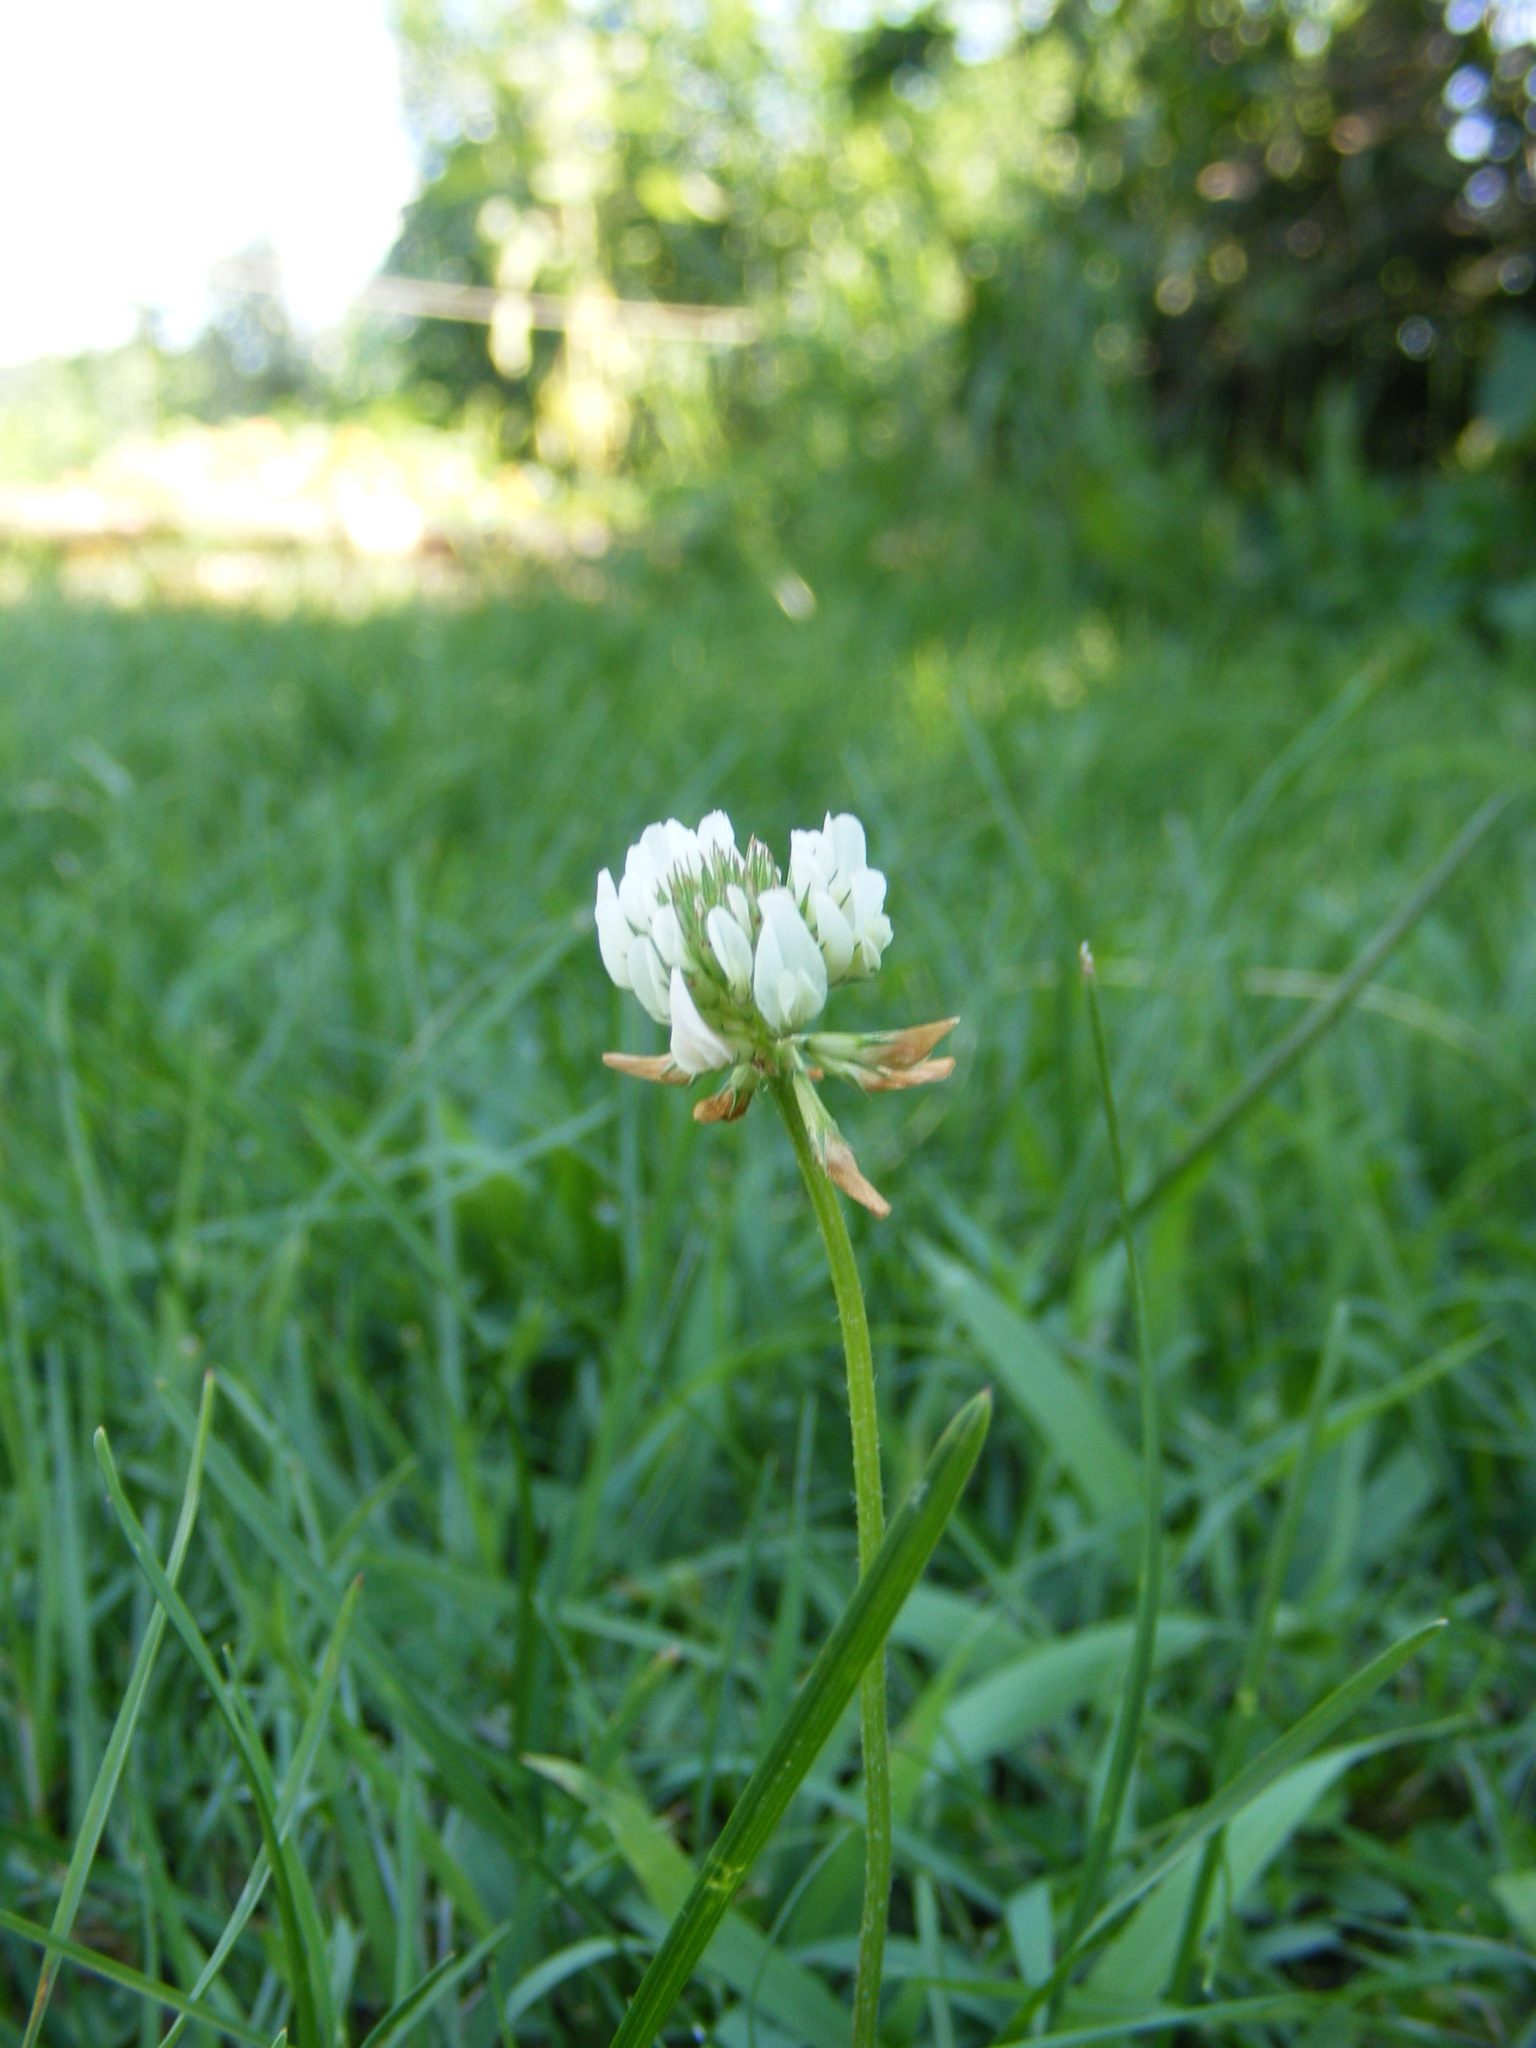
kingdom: Plantae
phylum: Tracheophyta
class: Magnoliopsida
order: Fabales
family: Fabaceae
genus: Trifolium
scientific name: Trifolium repens
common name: White clover
